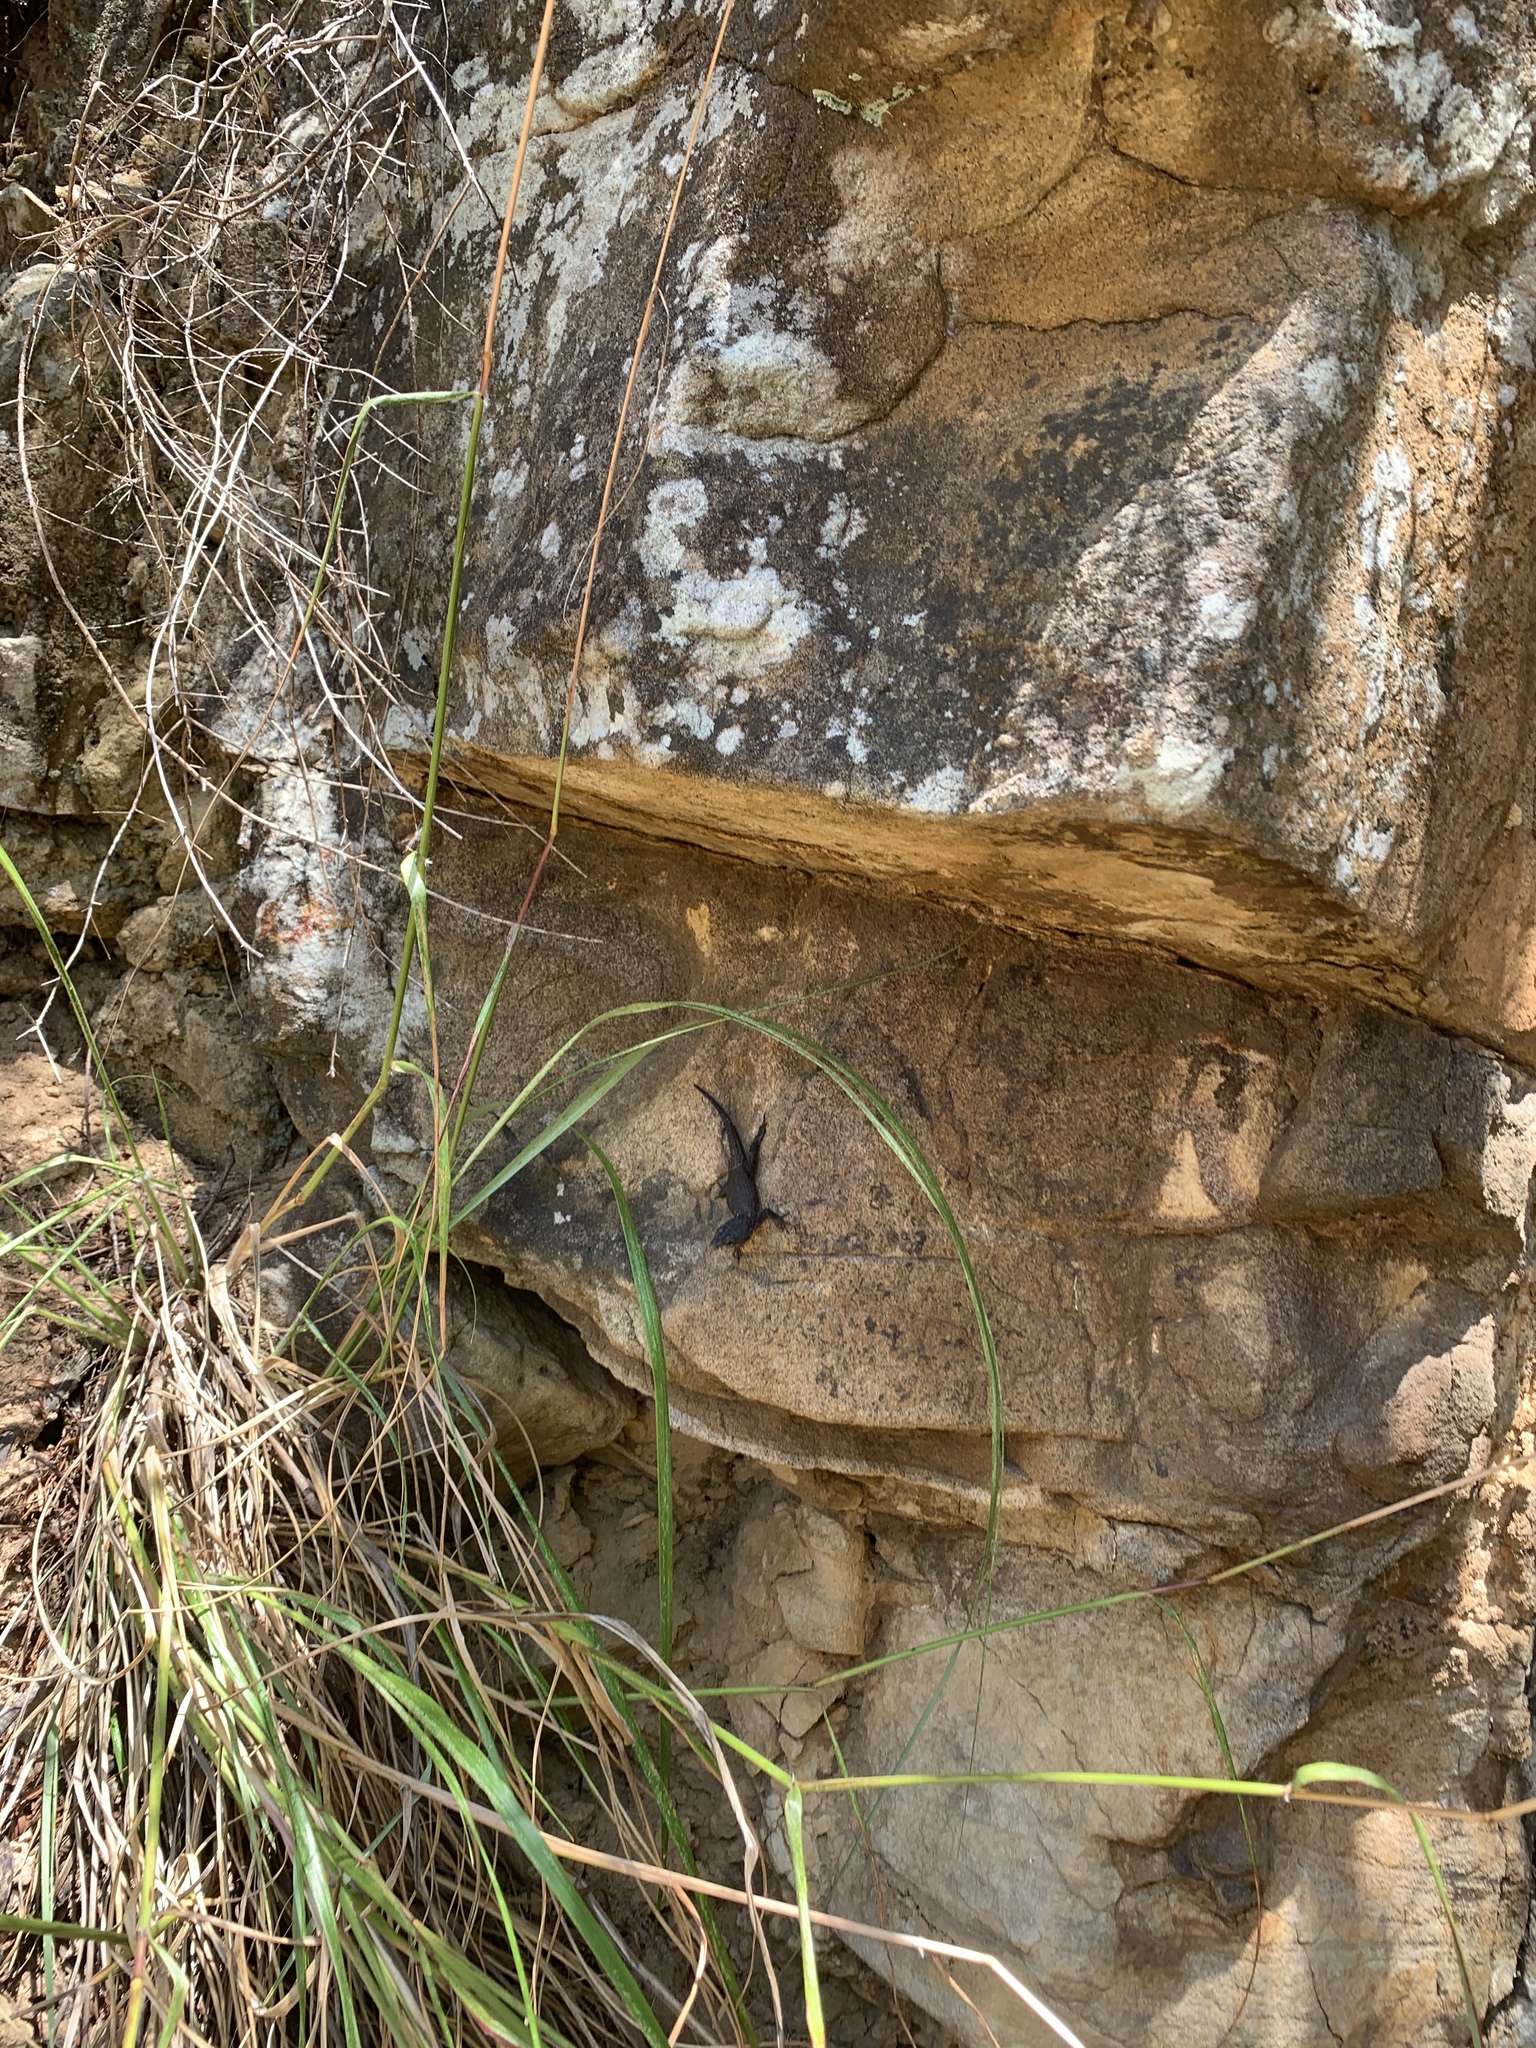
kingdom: Animalia
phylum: Chordata
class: Squamata
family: Cordylidae
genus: Cordylus
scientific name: Cordylus niger
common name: Black girdled lizard
